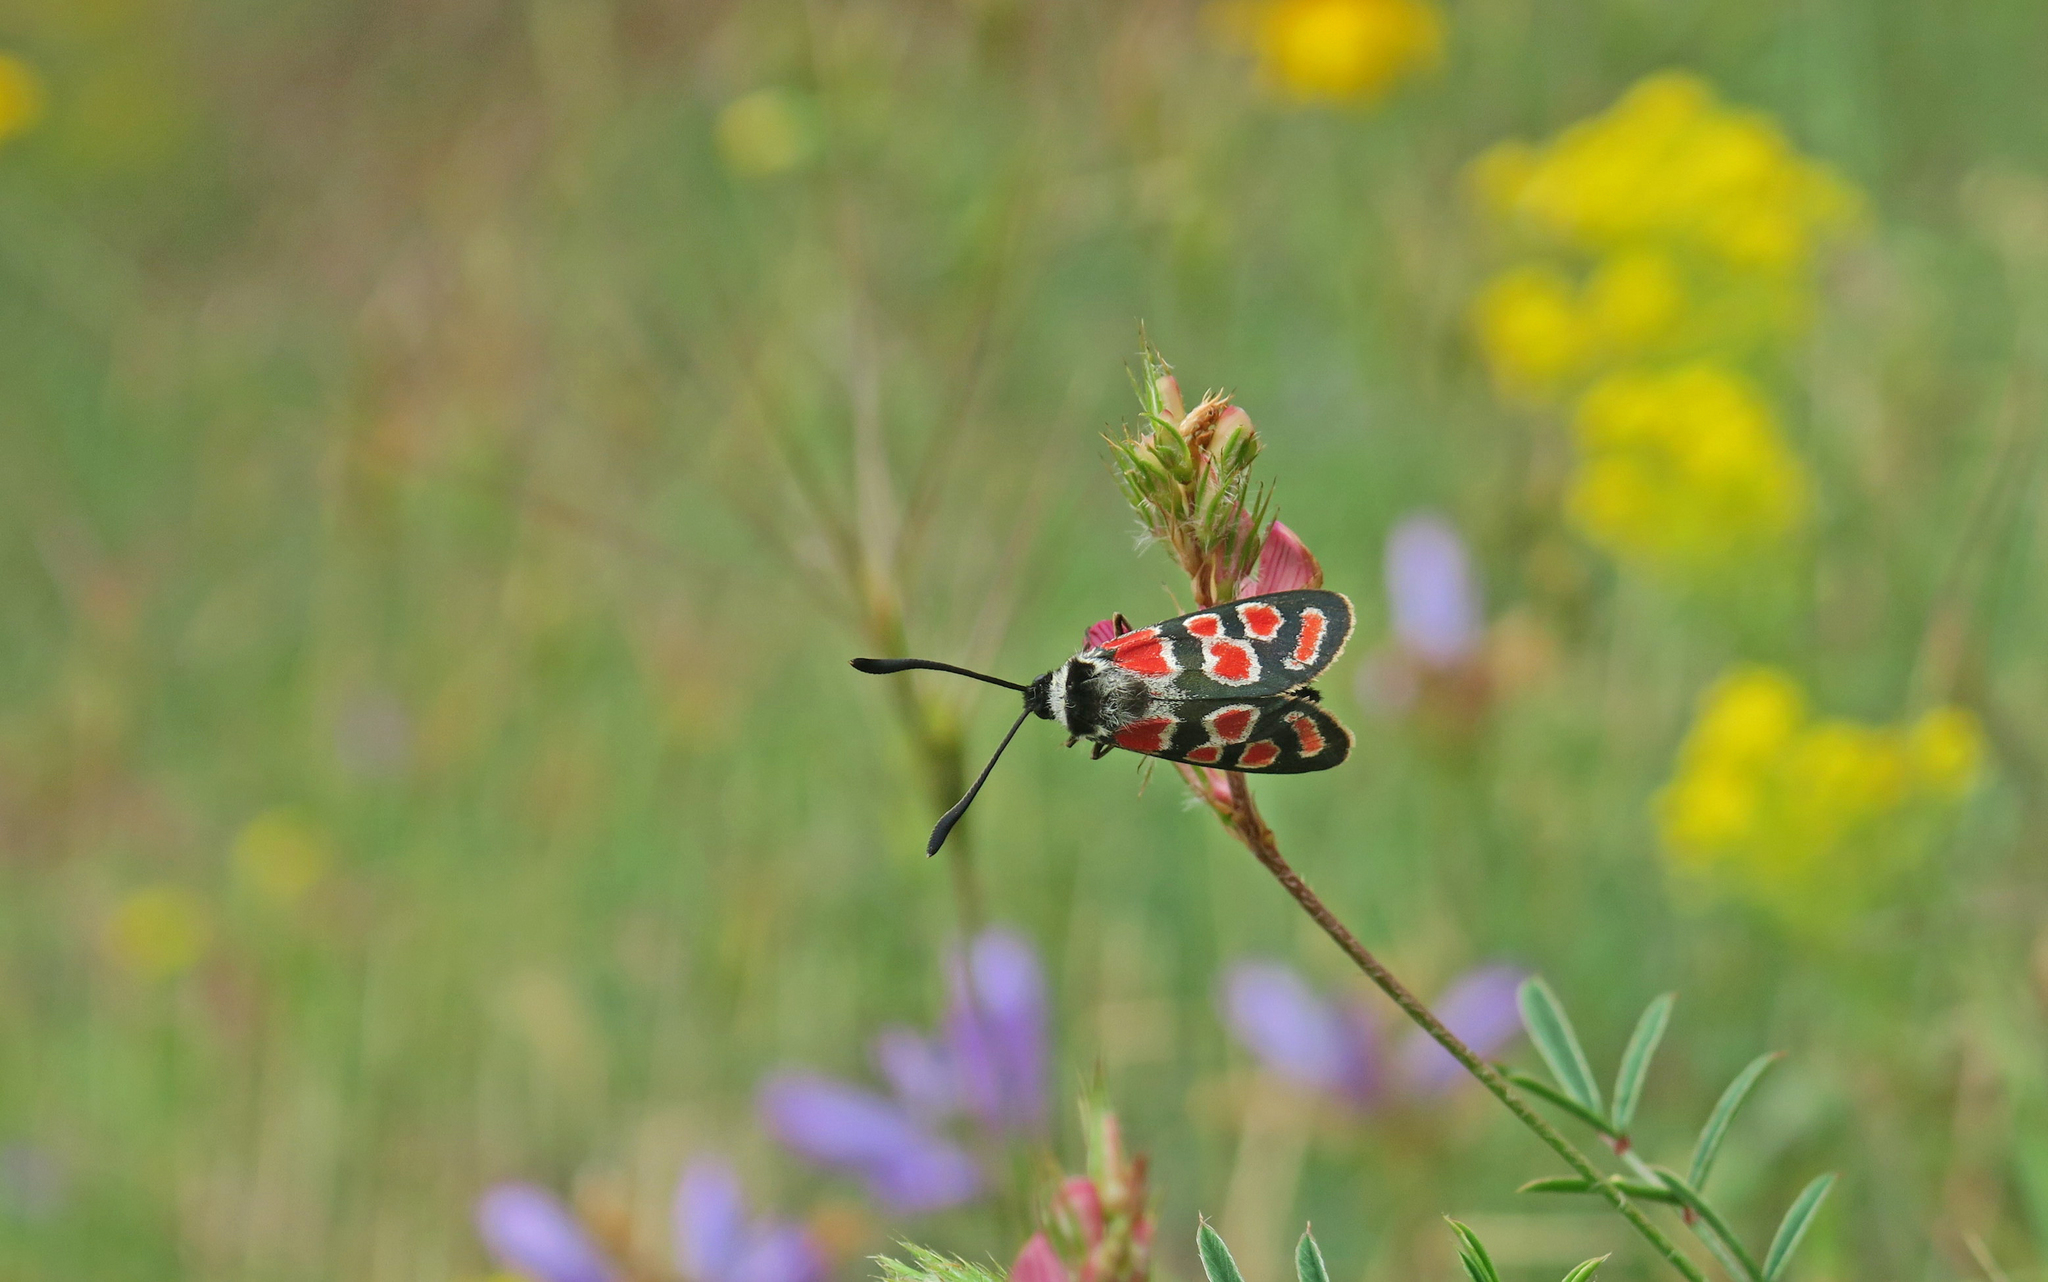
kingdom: Animalia
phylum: Arthropoda
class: Insecta
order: Lepidoptera
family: Zygaenidae
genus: Zygaena
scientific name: Zygaena carniolica
